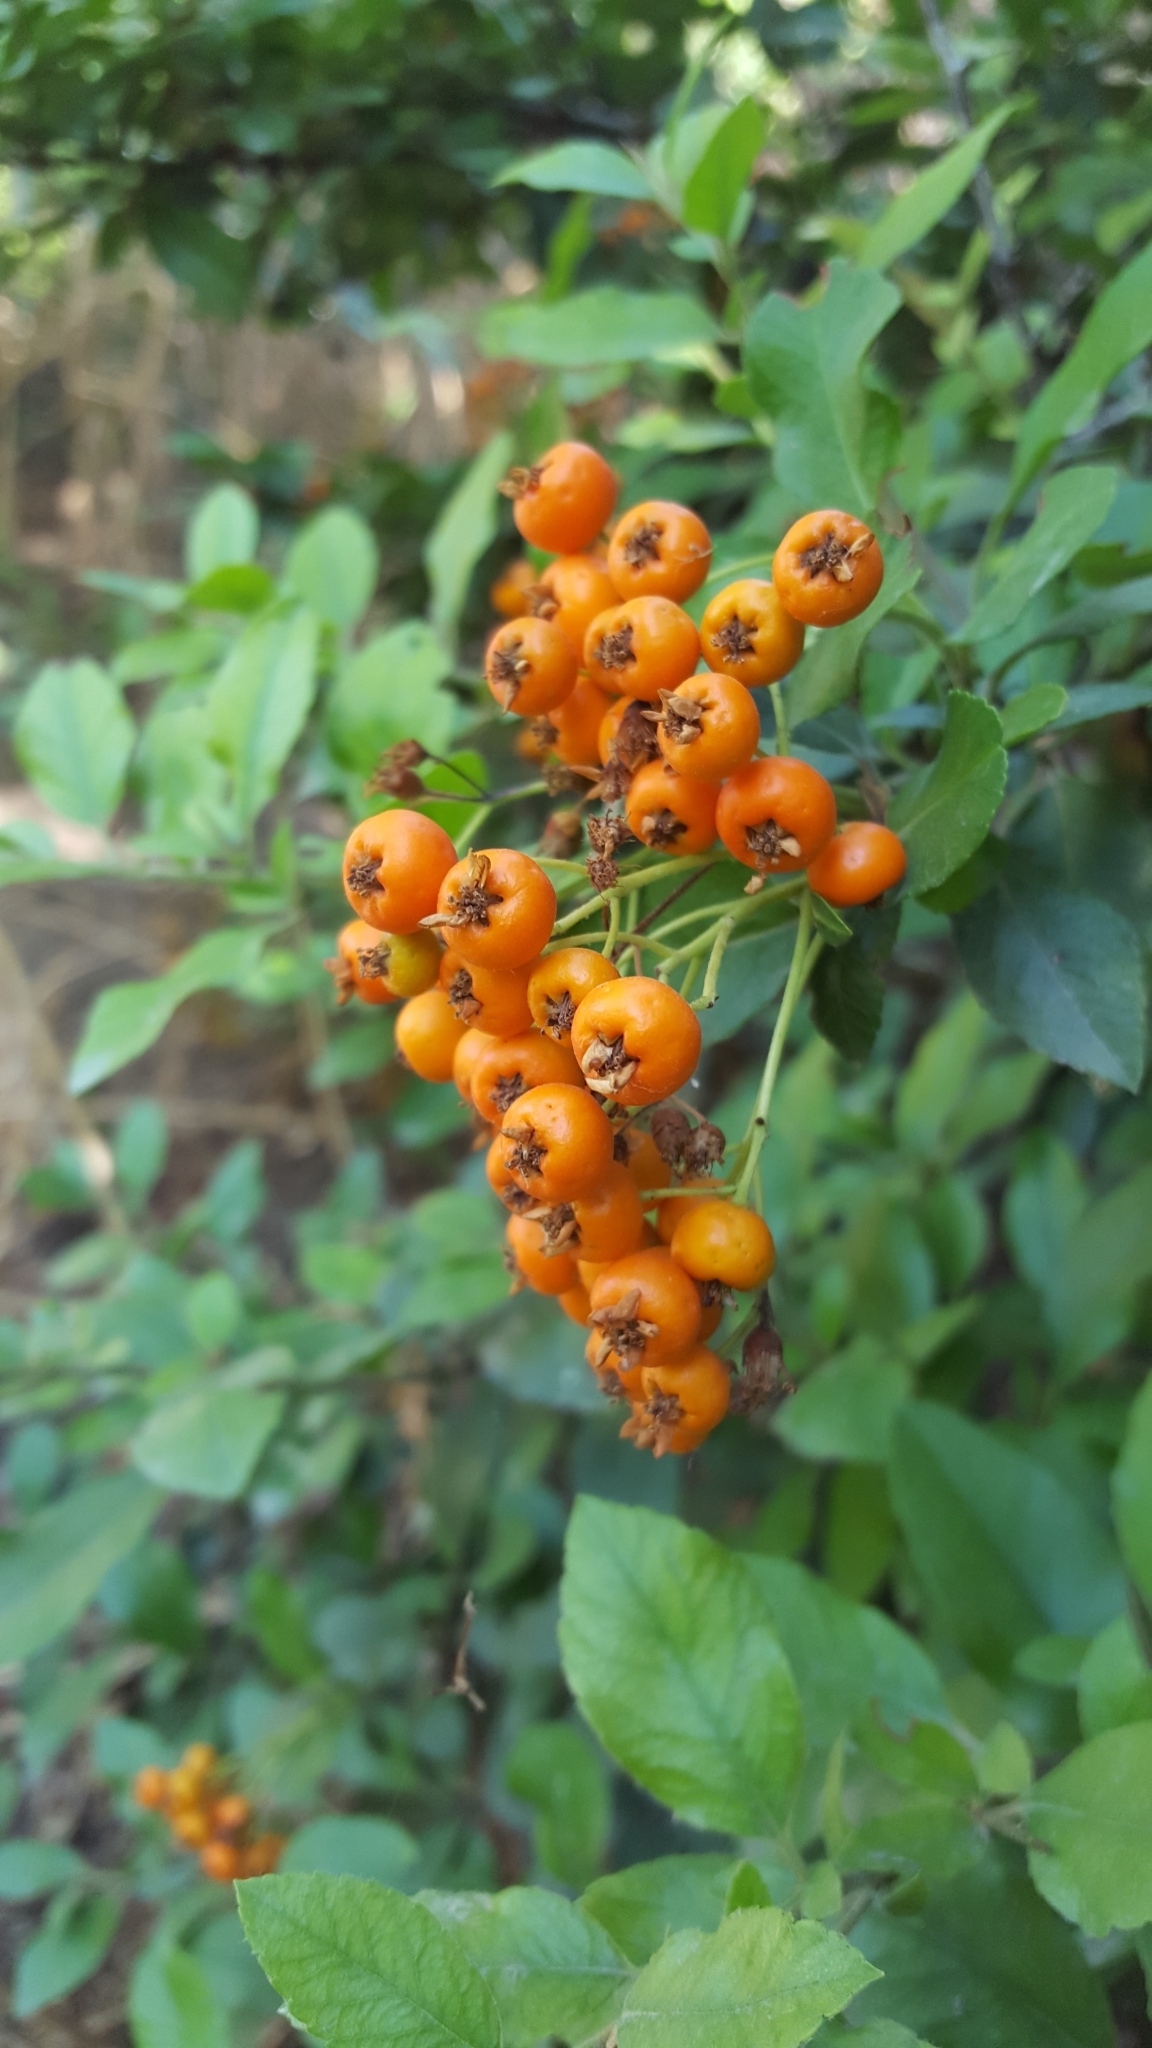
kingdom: Plantae
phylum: Tracheophyta
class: Magnoliopsida
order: Rosales
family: Rosaceae
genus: Pyracantha
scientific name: Pyracantha coccinea
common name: Firethorn
